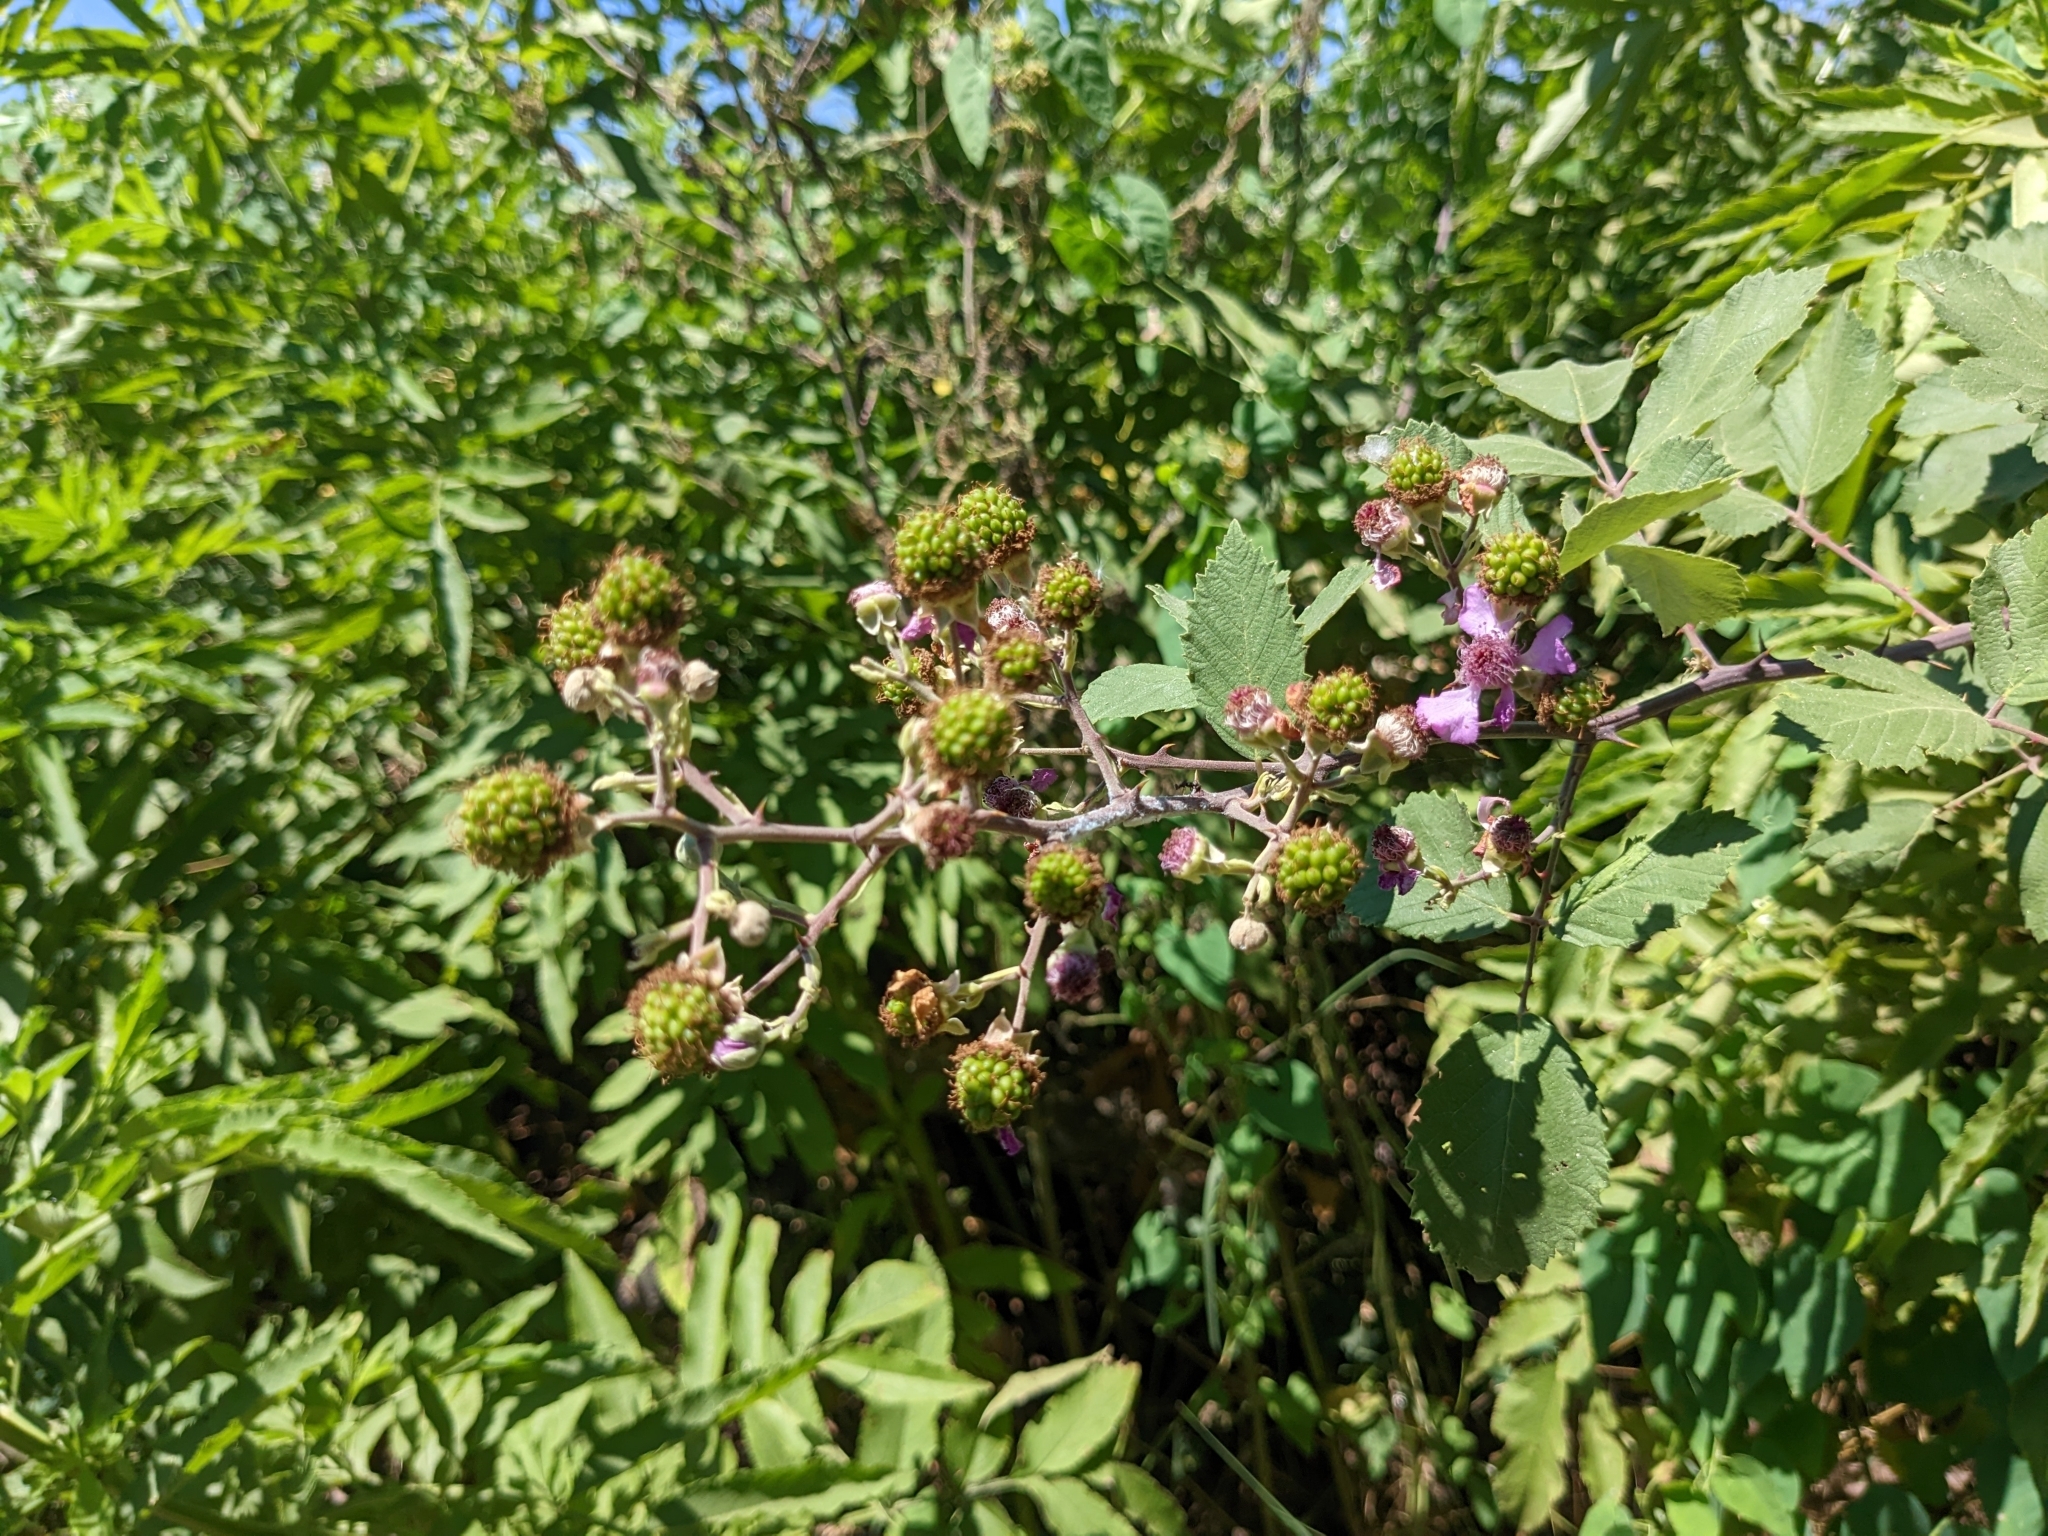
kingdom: Plantae
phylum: Tracheophyta
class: Magnoliopsida
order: Rosales
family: Rosaceae
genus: Rubus
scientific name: Rubus sanctus
